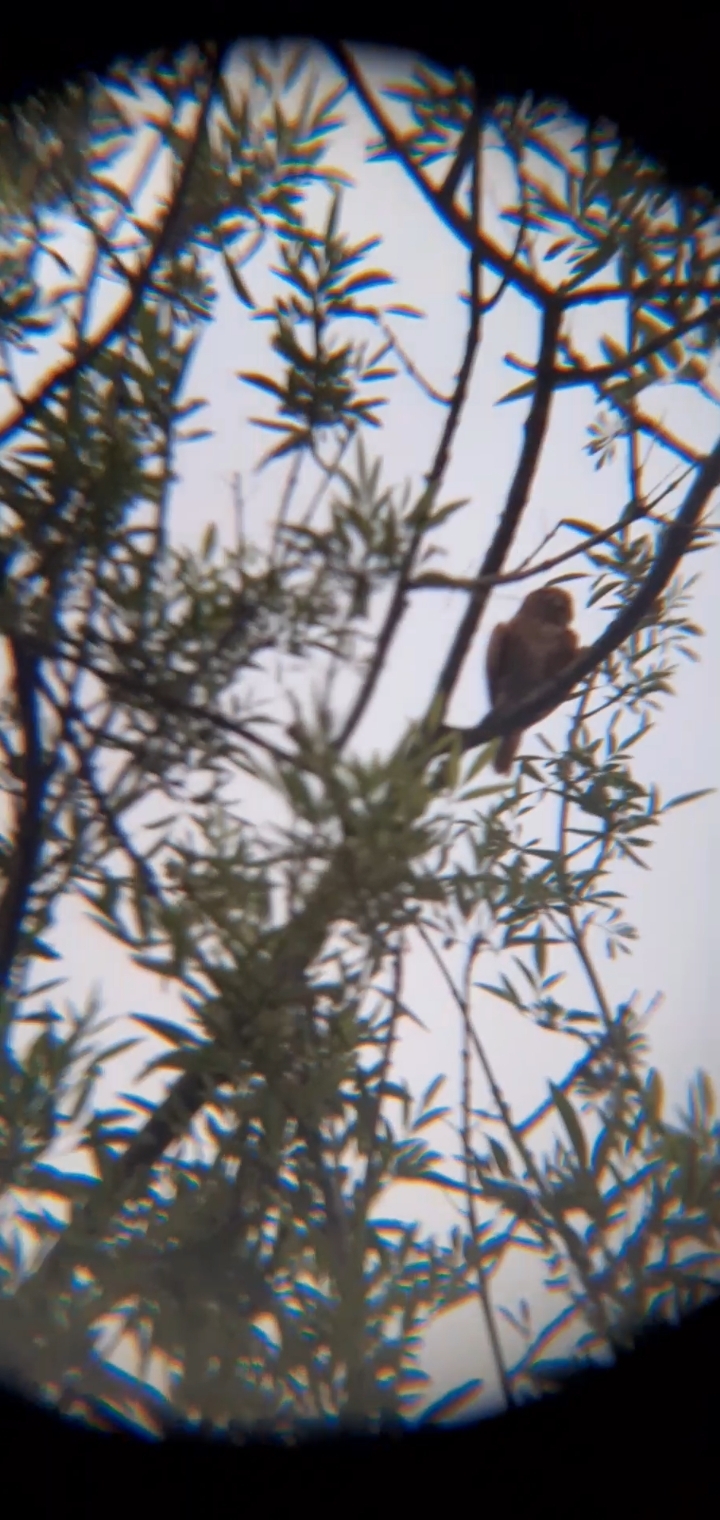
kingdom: Animalia
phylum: Chordata
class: Aves
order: Strigiformes
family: Strigidae
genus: Glaucidium
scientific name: Glaucidium brasilianum
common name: Ferruginous pygmy-owl
